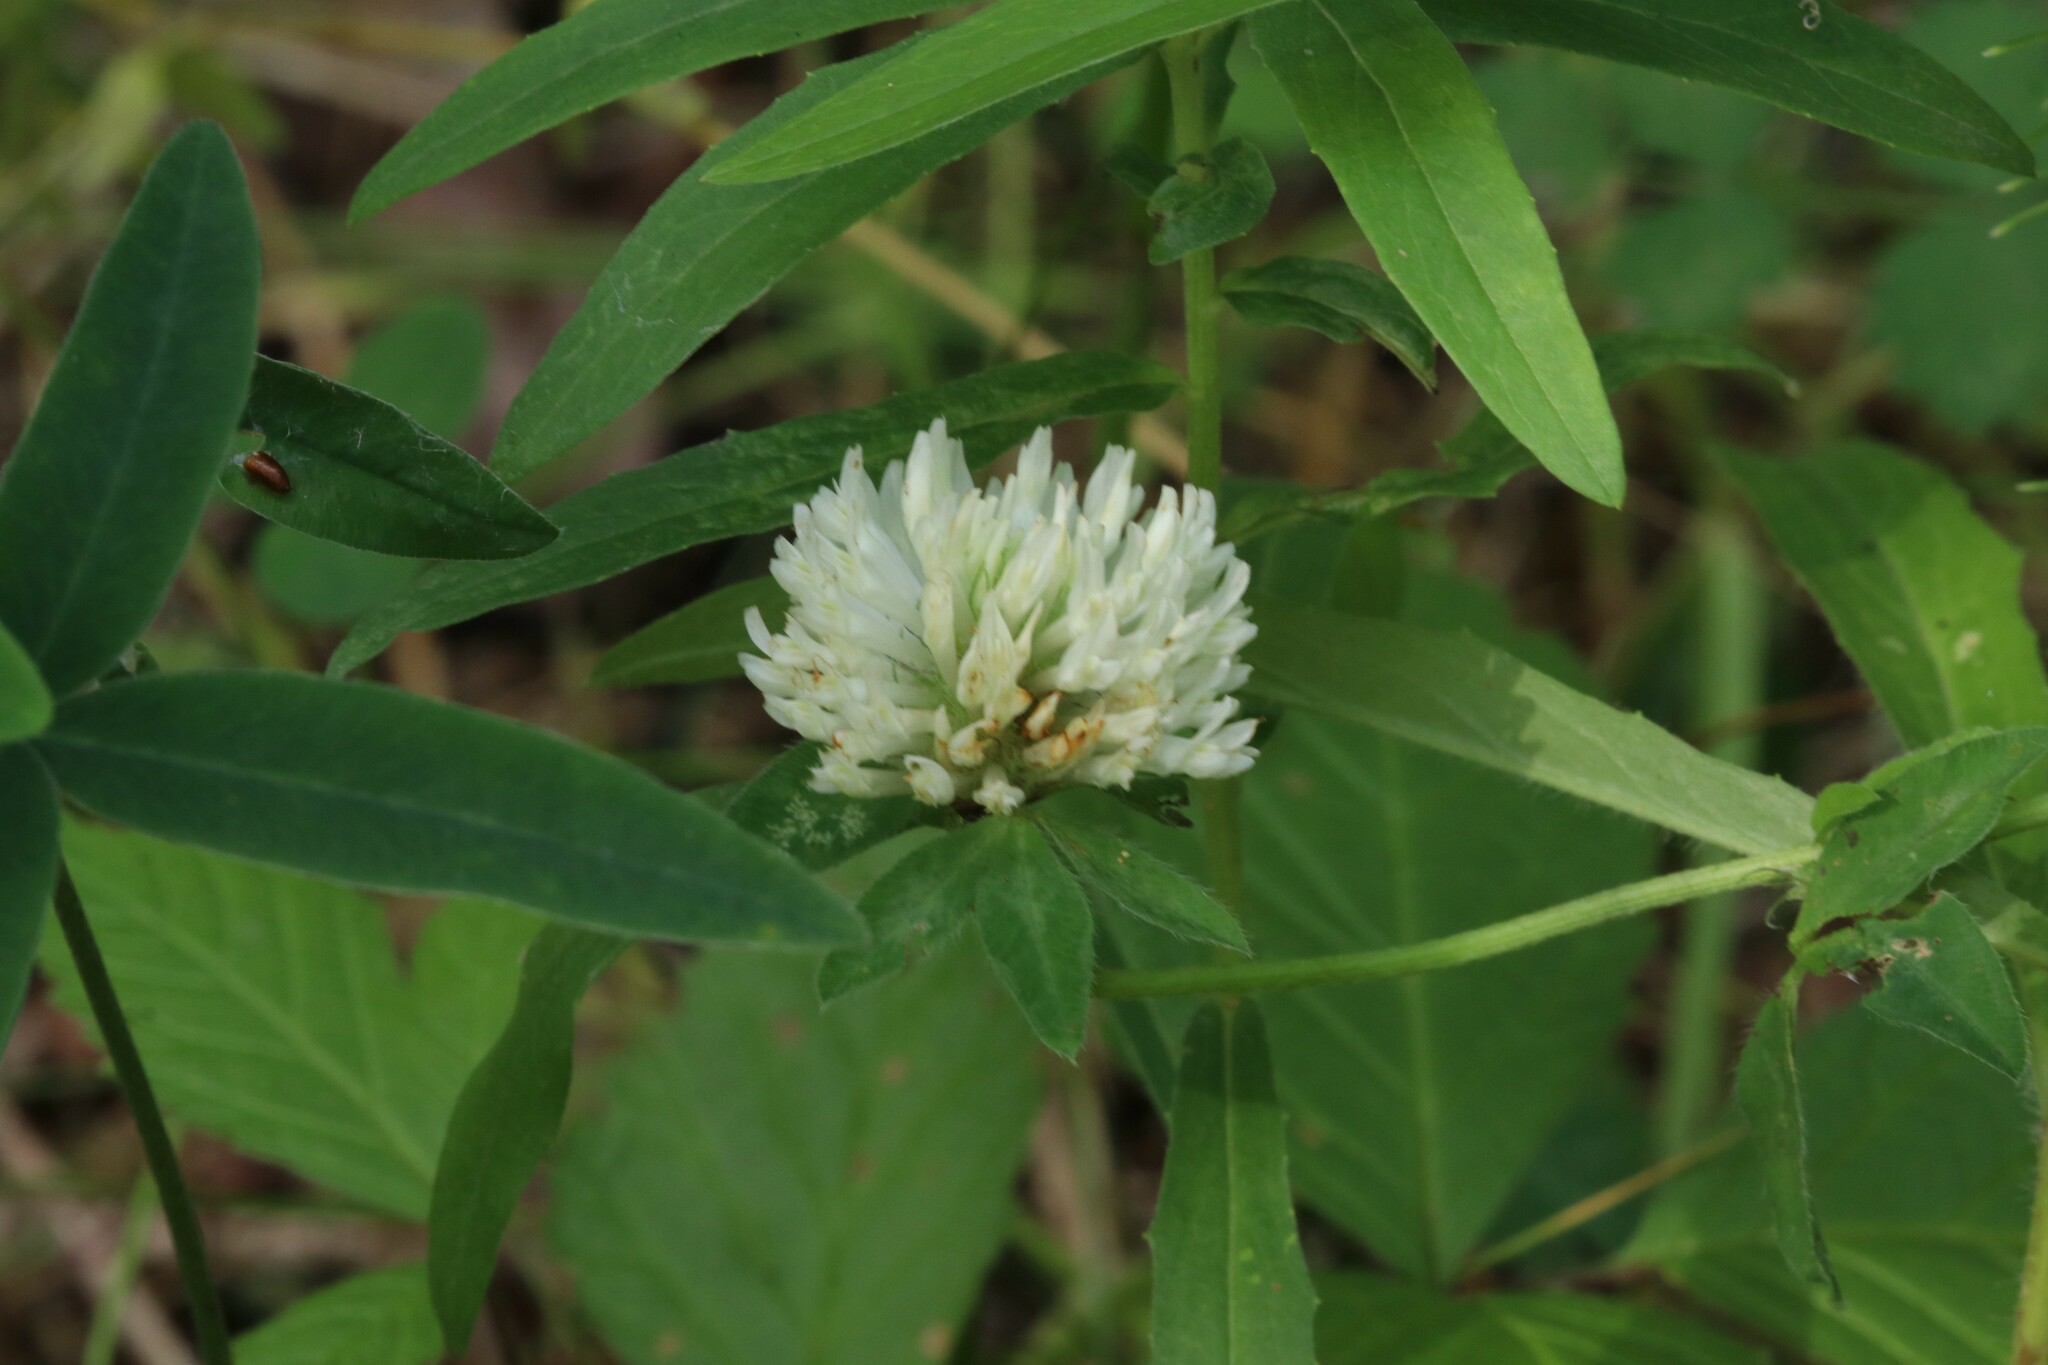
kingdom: Plantae
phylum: Tracheophyta
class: Magnoliopsida
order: Fabales
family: Fabaceae
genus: Trifolium
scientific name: Trifolium pratense
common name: Red clover
